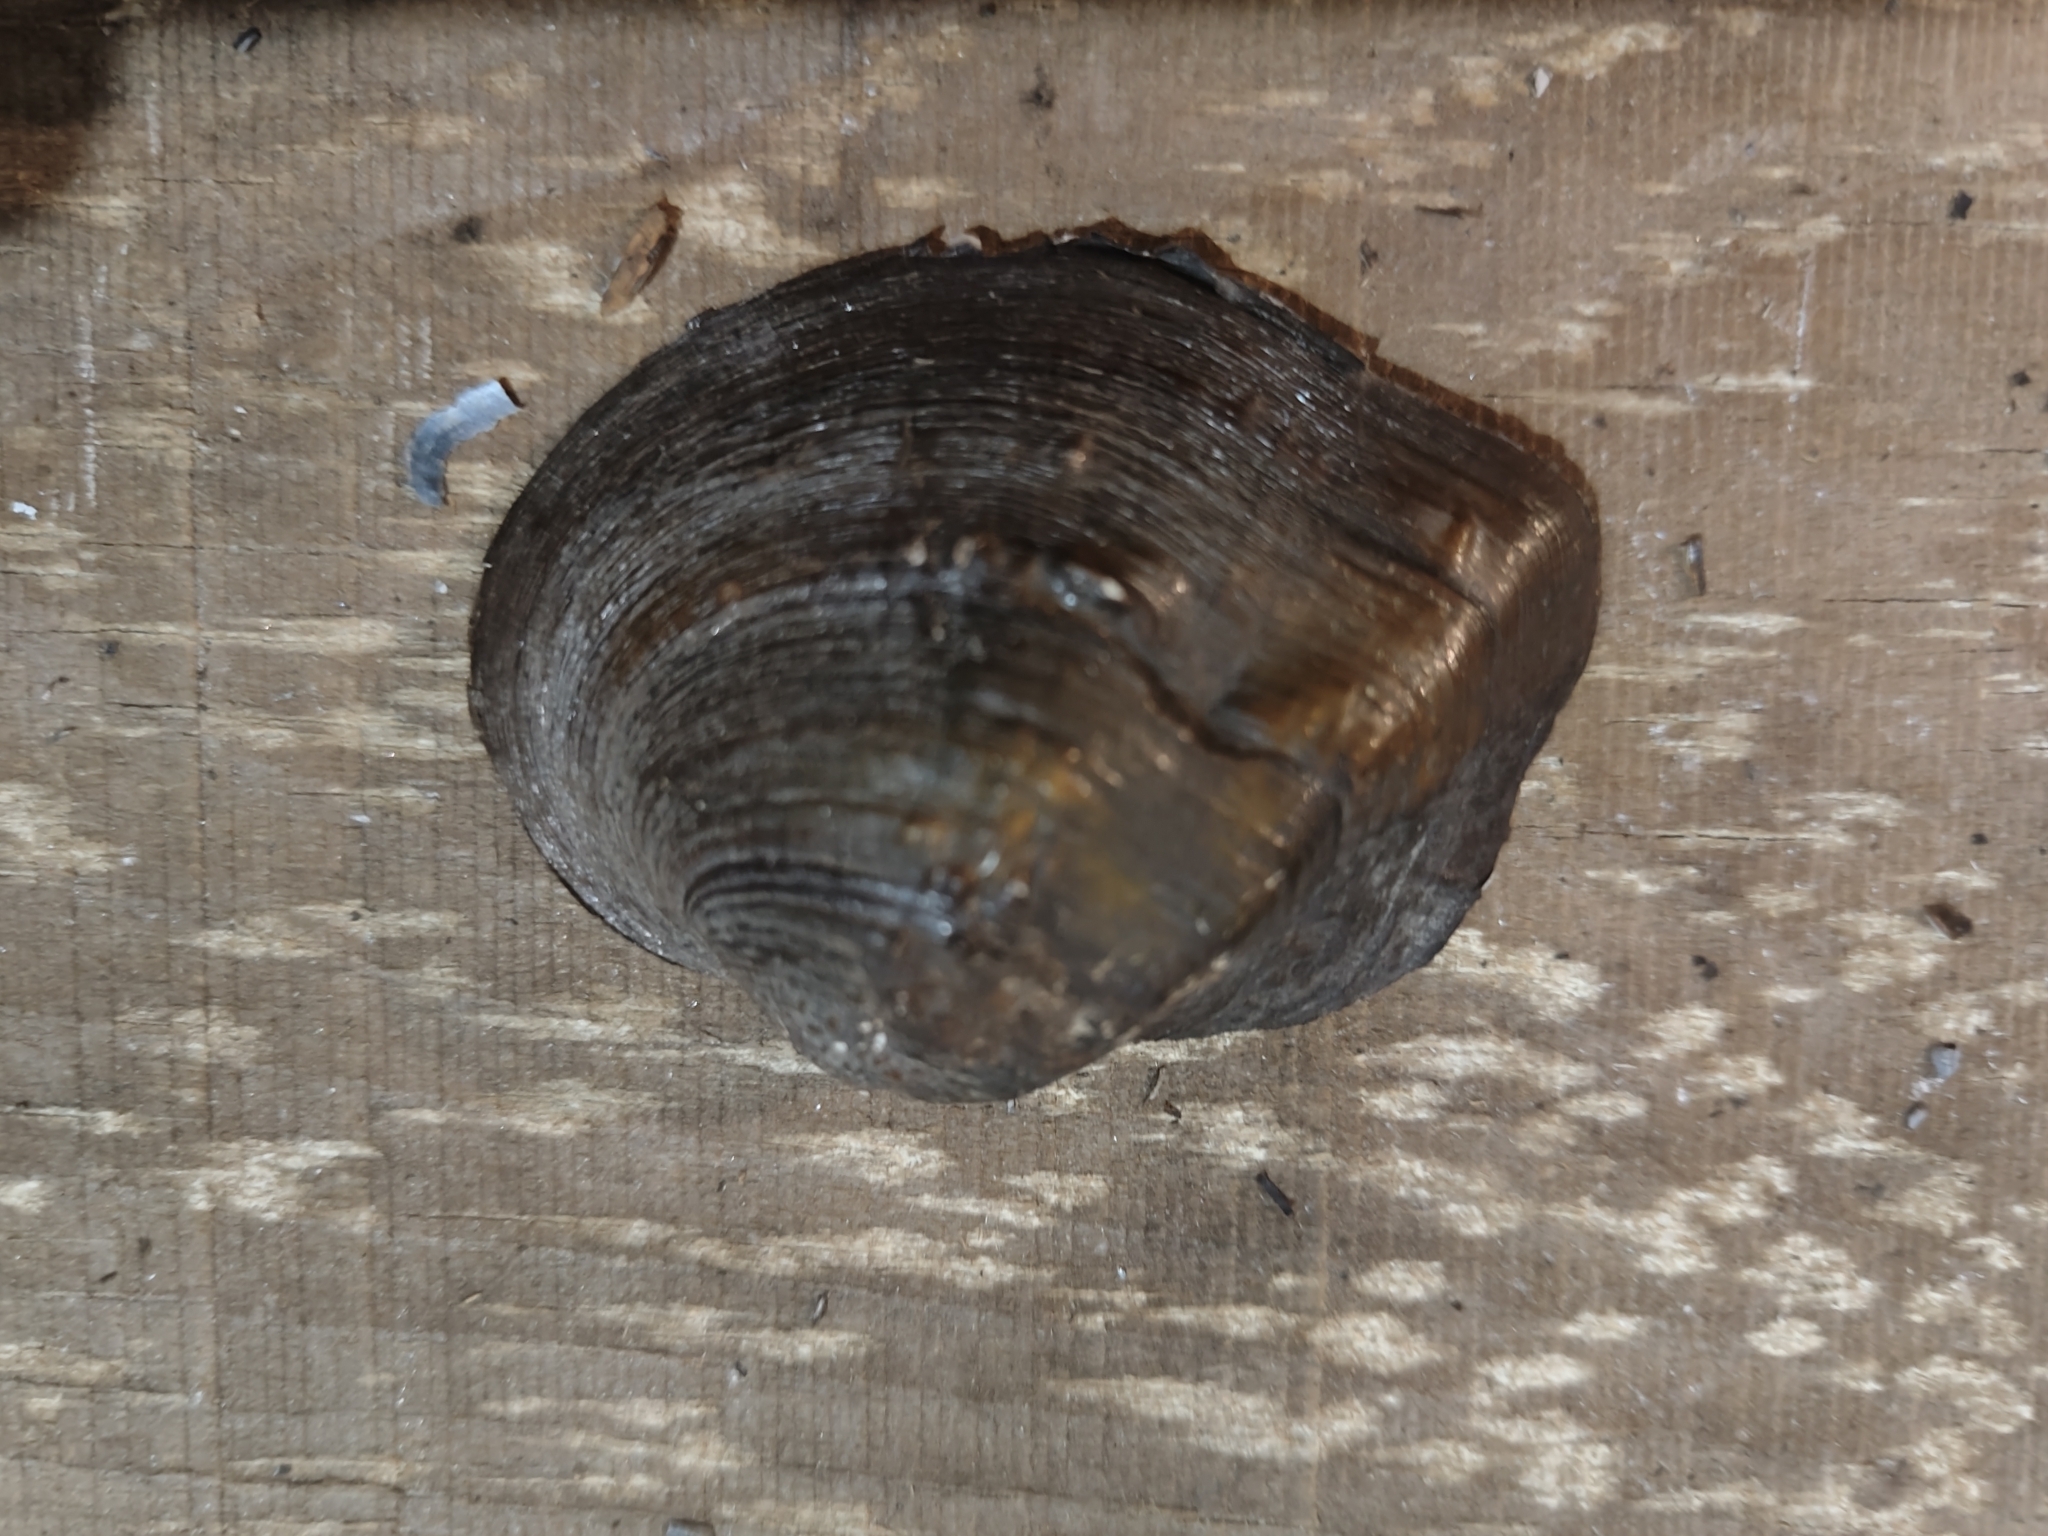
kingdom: Animalia
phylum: Mollusca
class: Bivalvia
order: Unionida
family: Unionidae
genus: Quadrula
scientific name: Quadrula quadrula
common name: Mapleleaf
